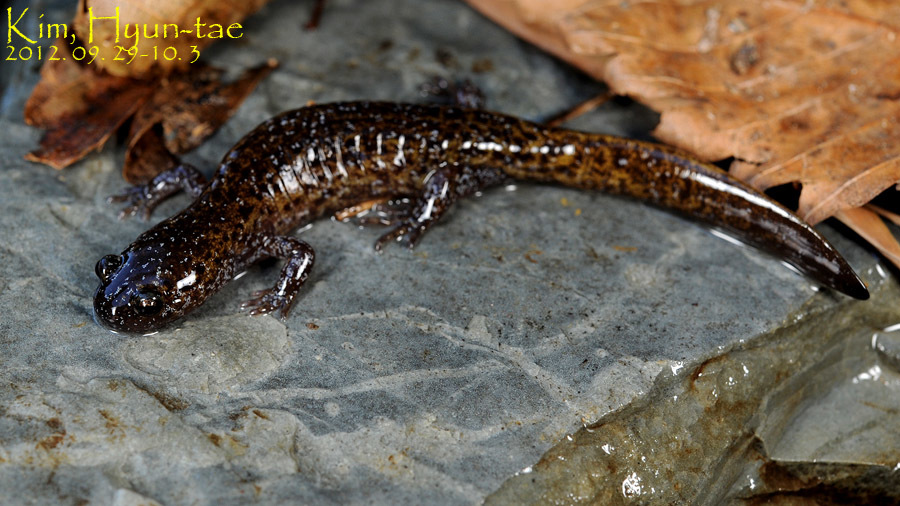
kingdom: Animalia
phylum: Chordata
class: Amphibia
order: Caudata
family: Hynobiidae
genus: Hynobius
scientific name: Hynobius perplicatus
